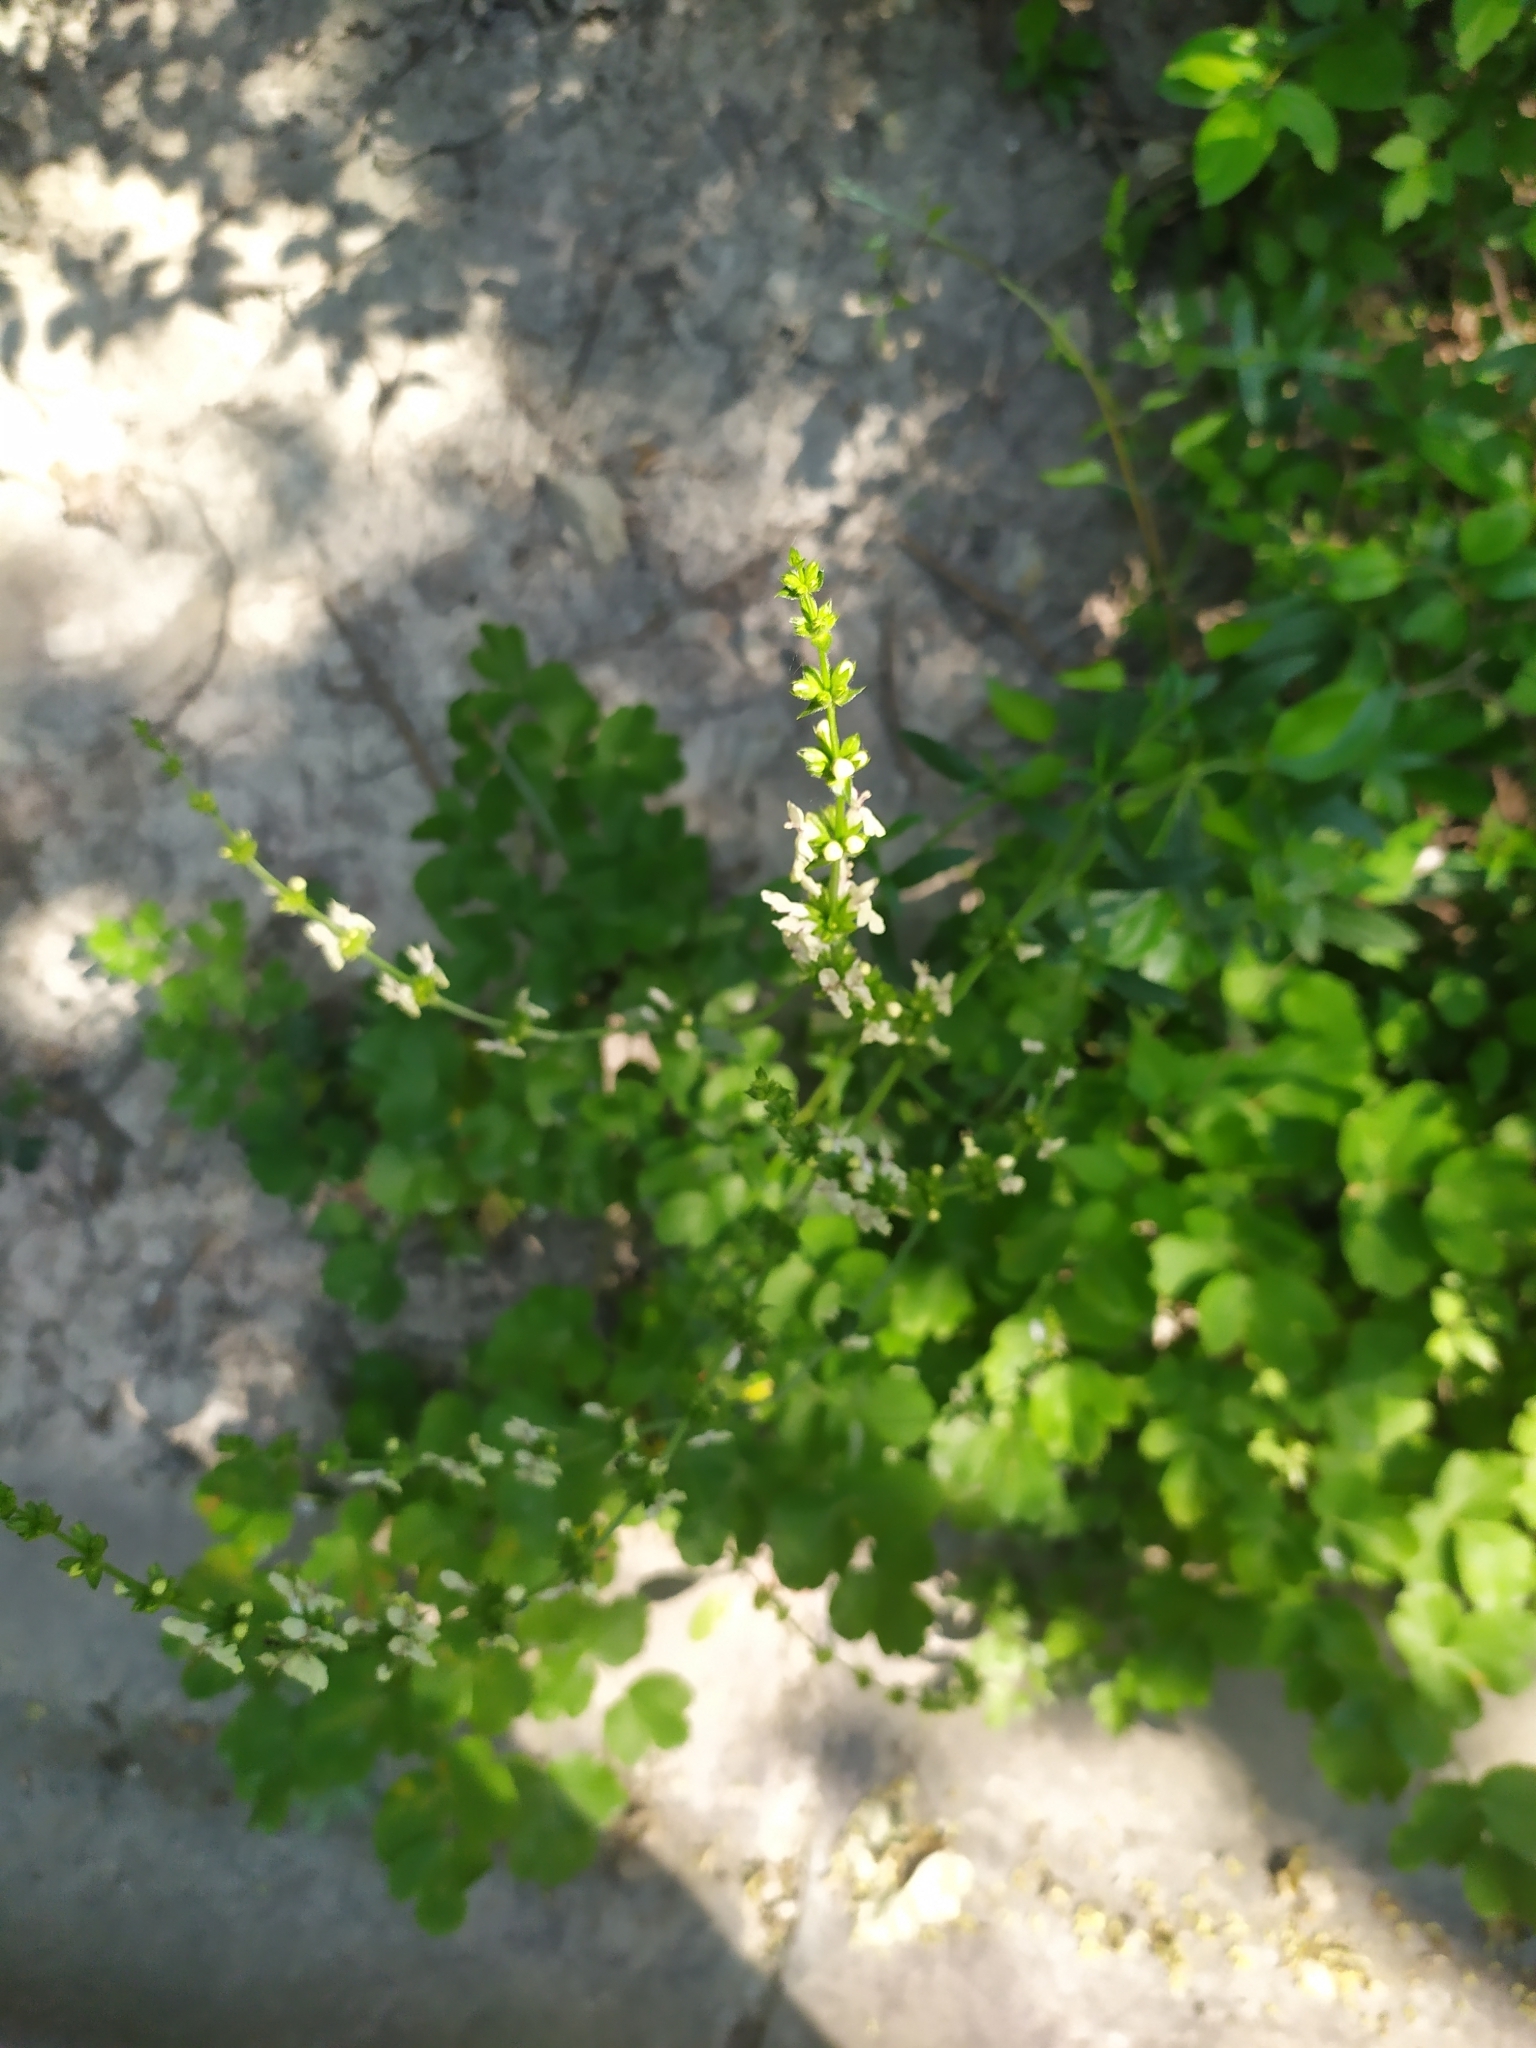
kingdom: Plantae
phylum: Tracheophyta
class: Magnoliopsida
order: Lamiales
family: Lamiaceae
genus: Stachys
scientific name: Stachys recta
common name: Perennial yellow-woundwort
